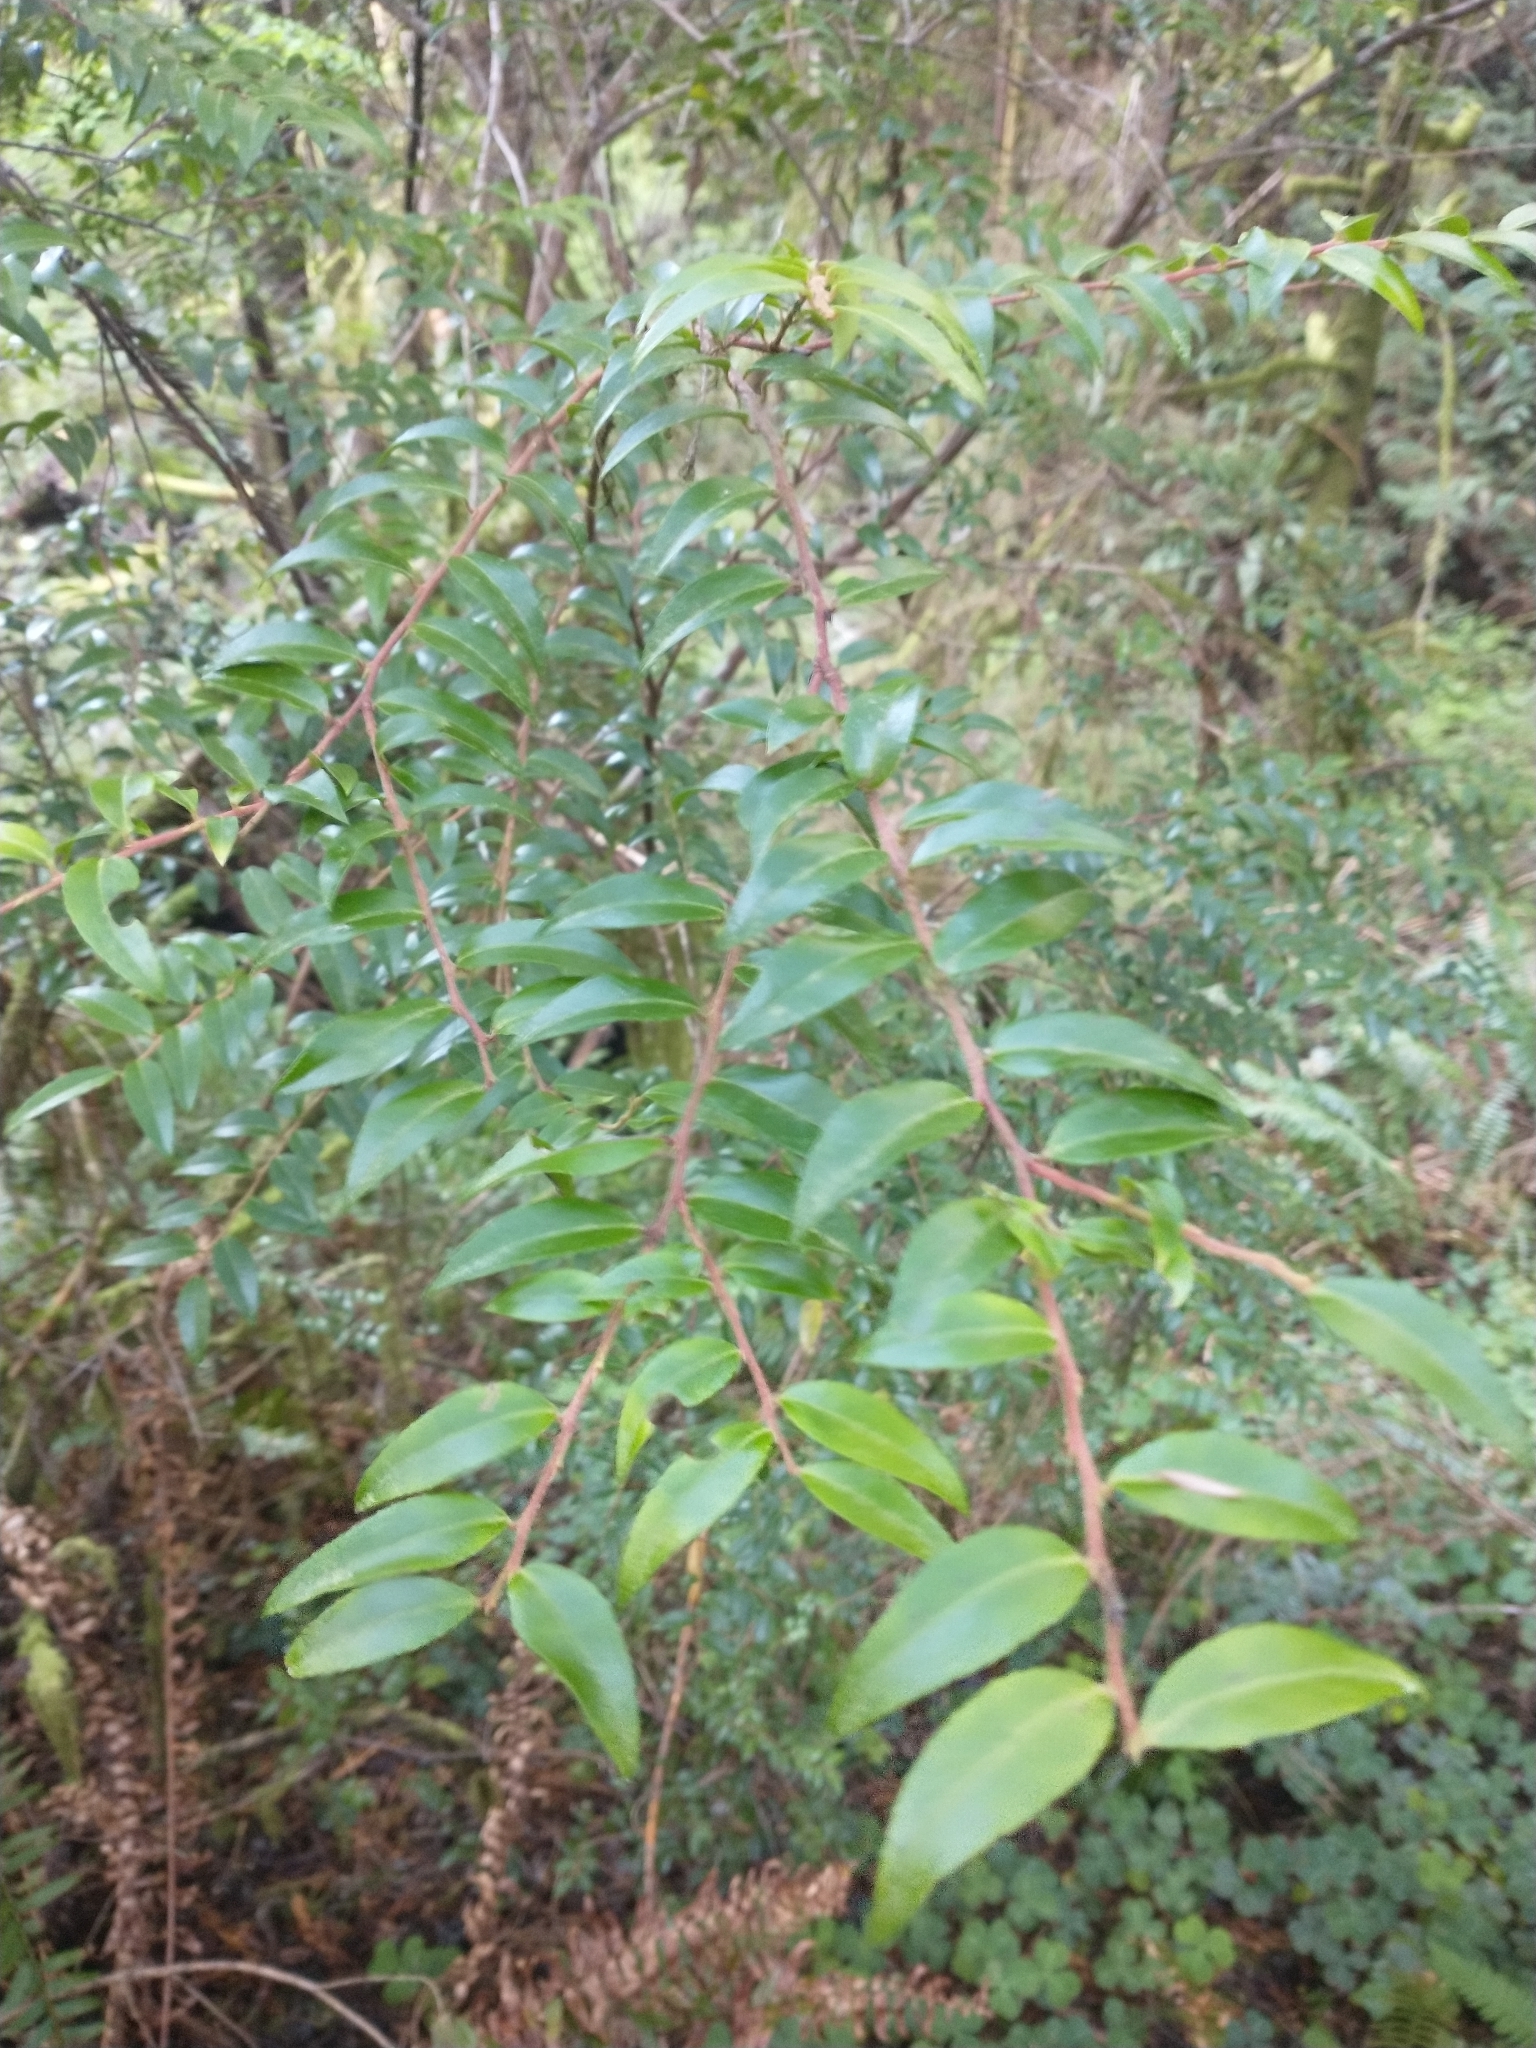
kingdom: Plantae
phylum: Tracheophyta
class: Magnoliopsida
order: Ericales
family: Ericaceae
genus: Vaccinium
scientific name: Vaccinium ovatum
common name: California-huckleberry
